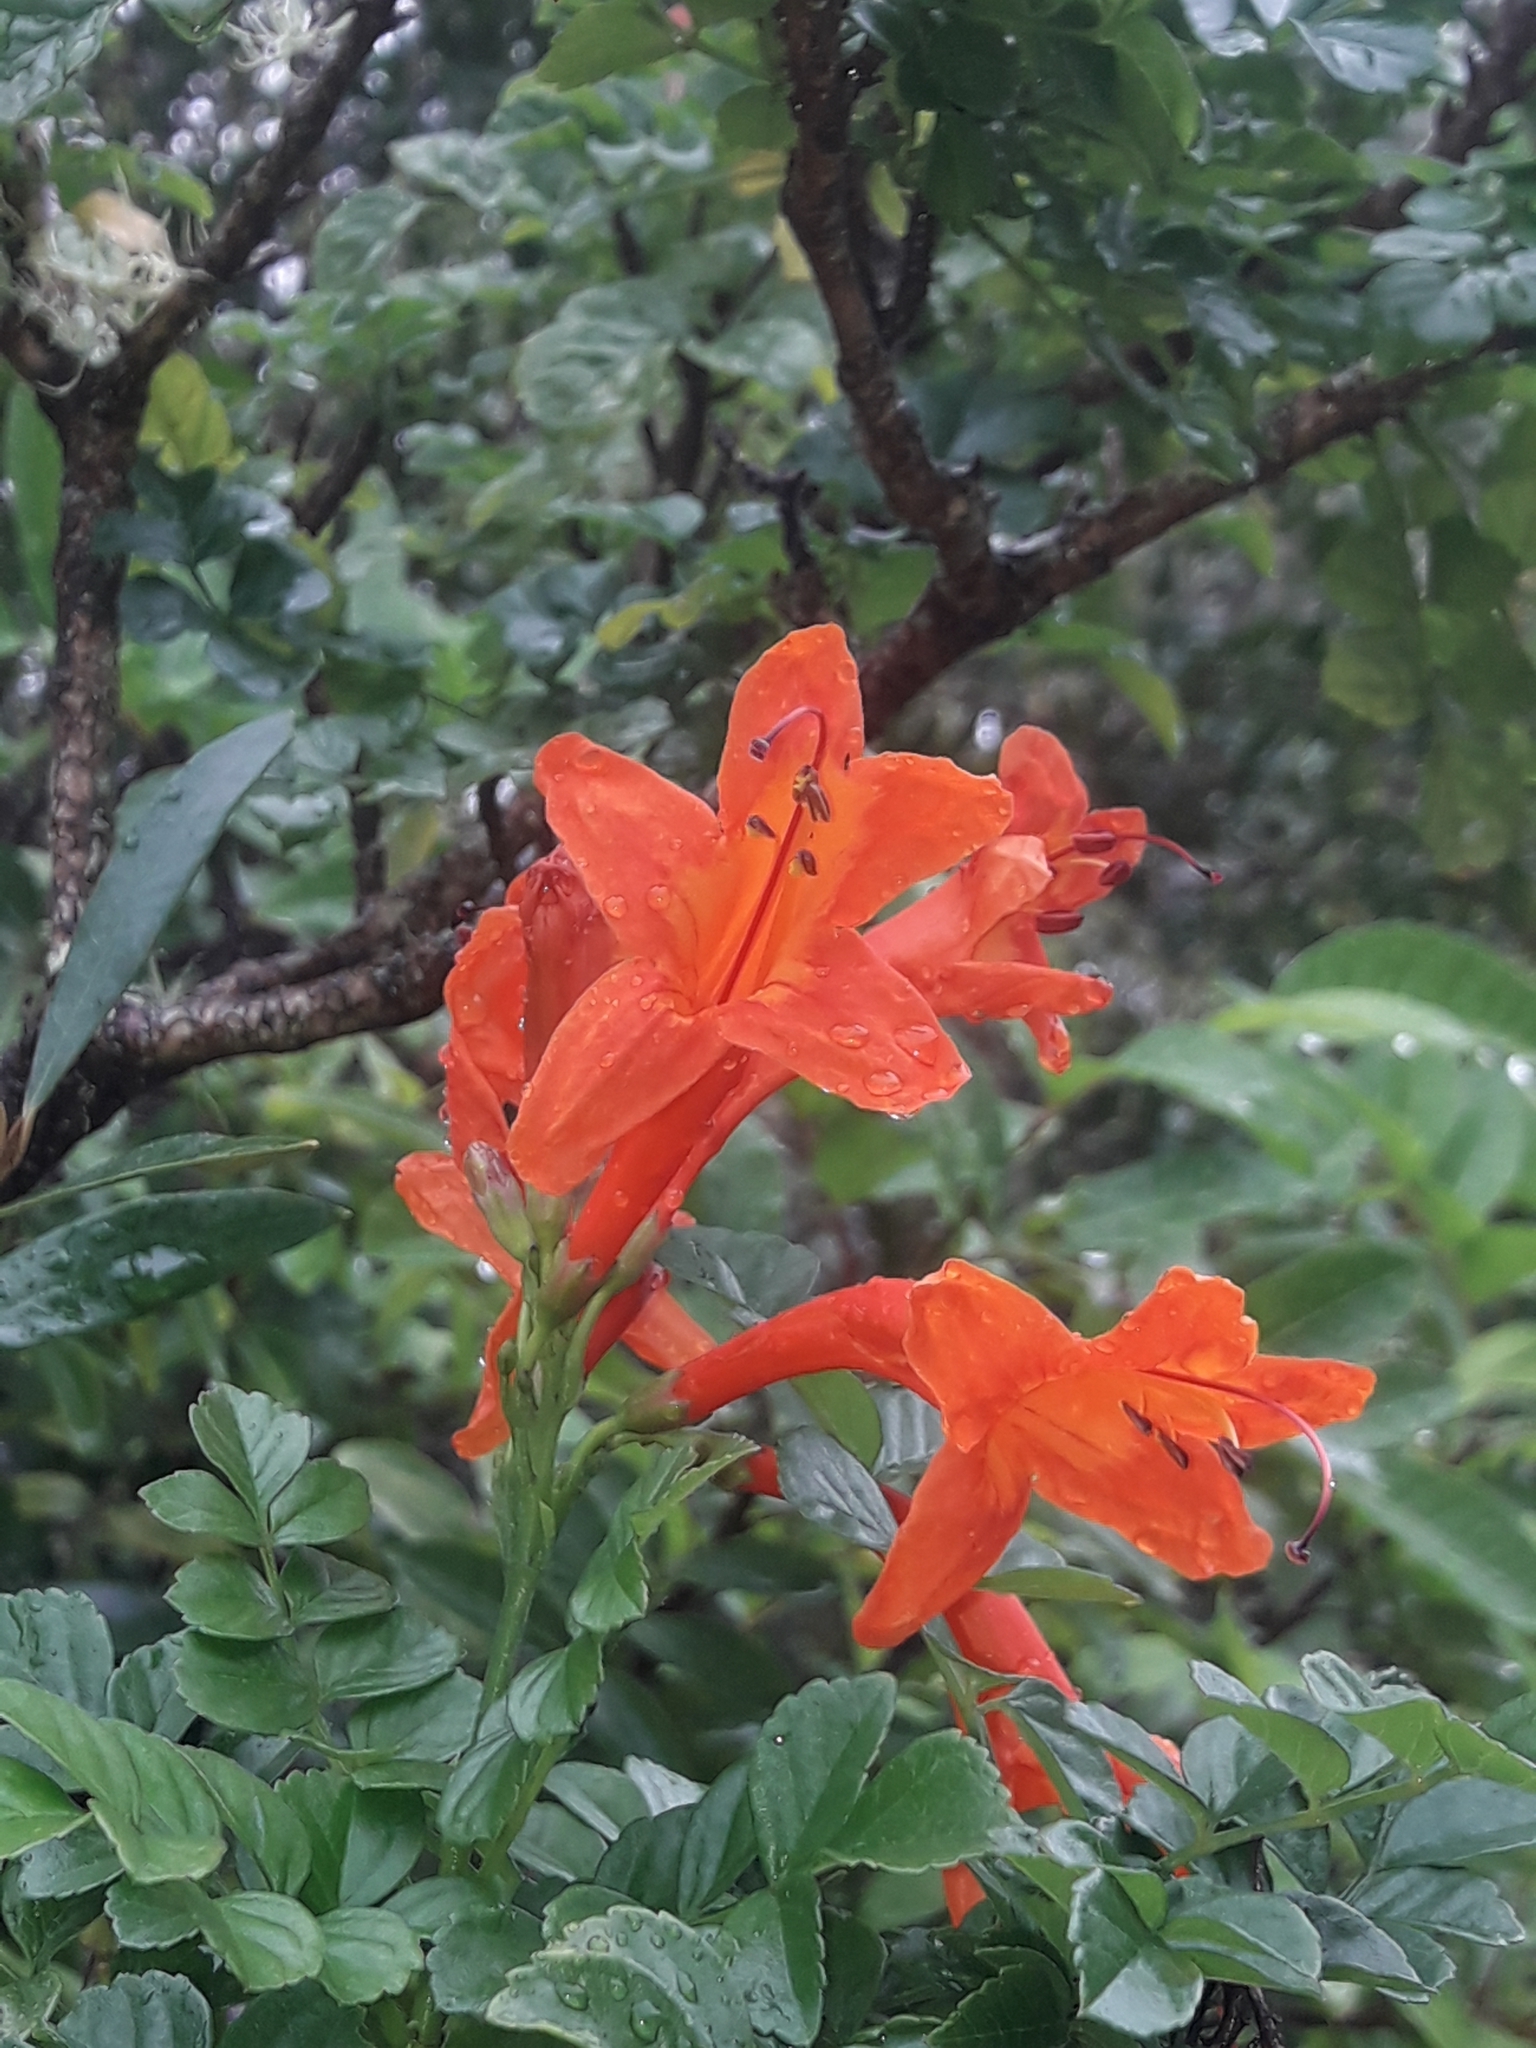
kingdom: Plantae
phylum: Tracheophyta
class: Magnoliopsida
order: Lamiales
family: Bignoniaceae
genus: Tecomaria
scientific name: Tecomaria capensis
